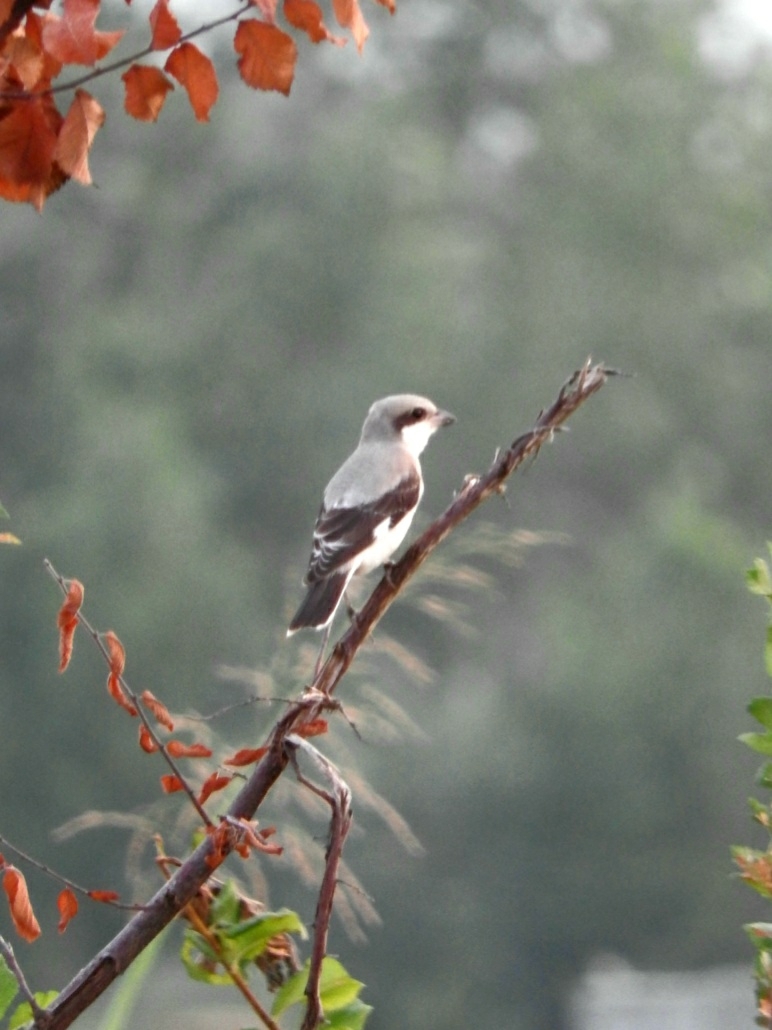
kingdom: Animalia
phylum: Chordata
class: Aves
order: Passeriformes
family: Laniidae
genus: Lanius
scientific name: Lanius minor
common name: Lesser grey shrike
